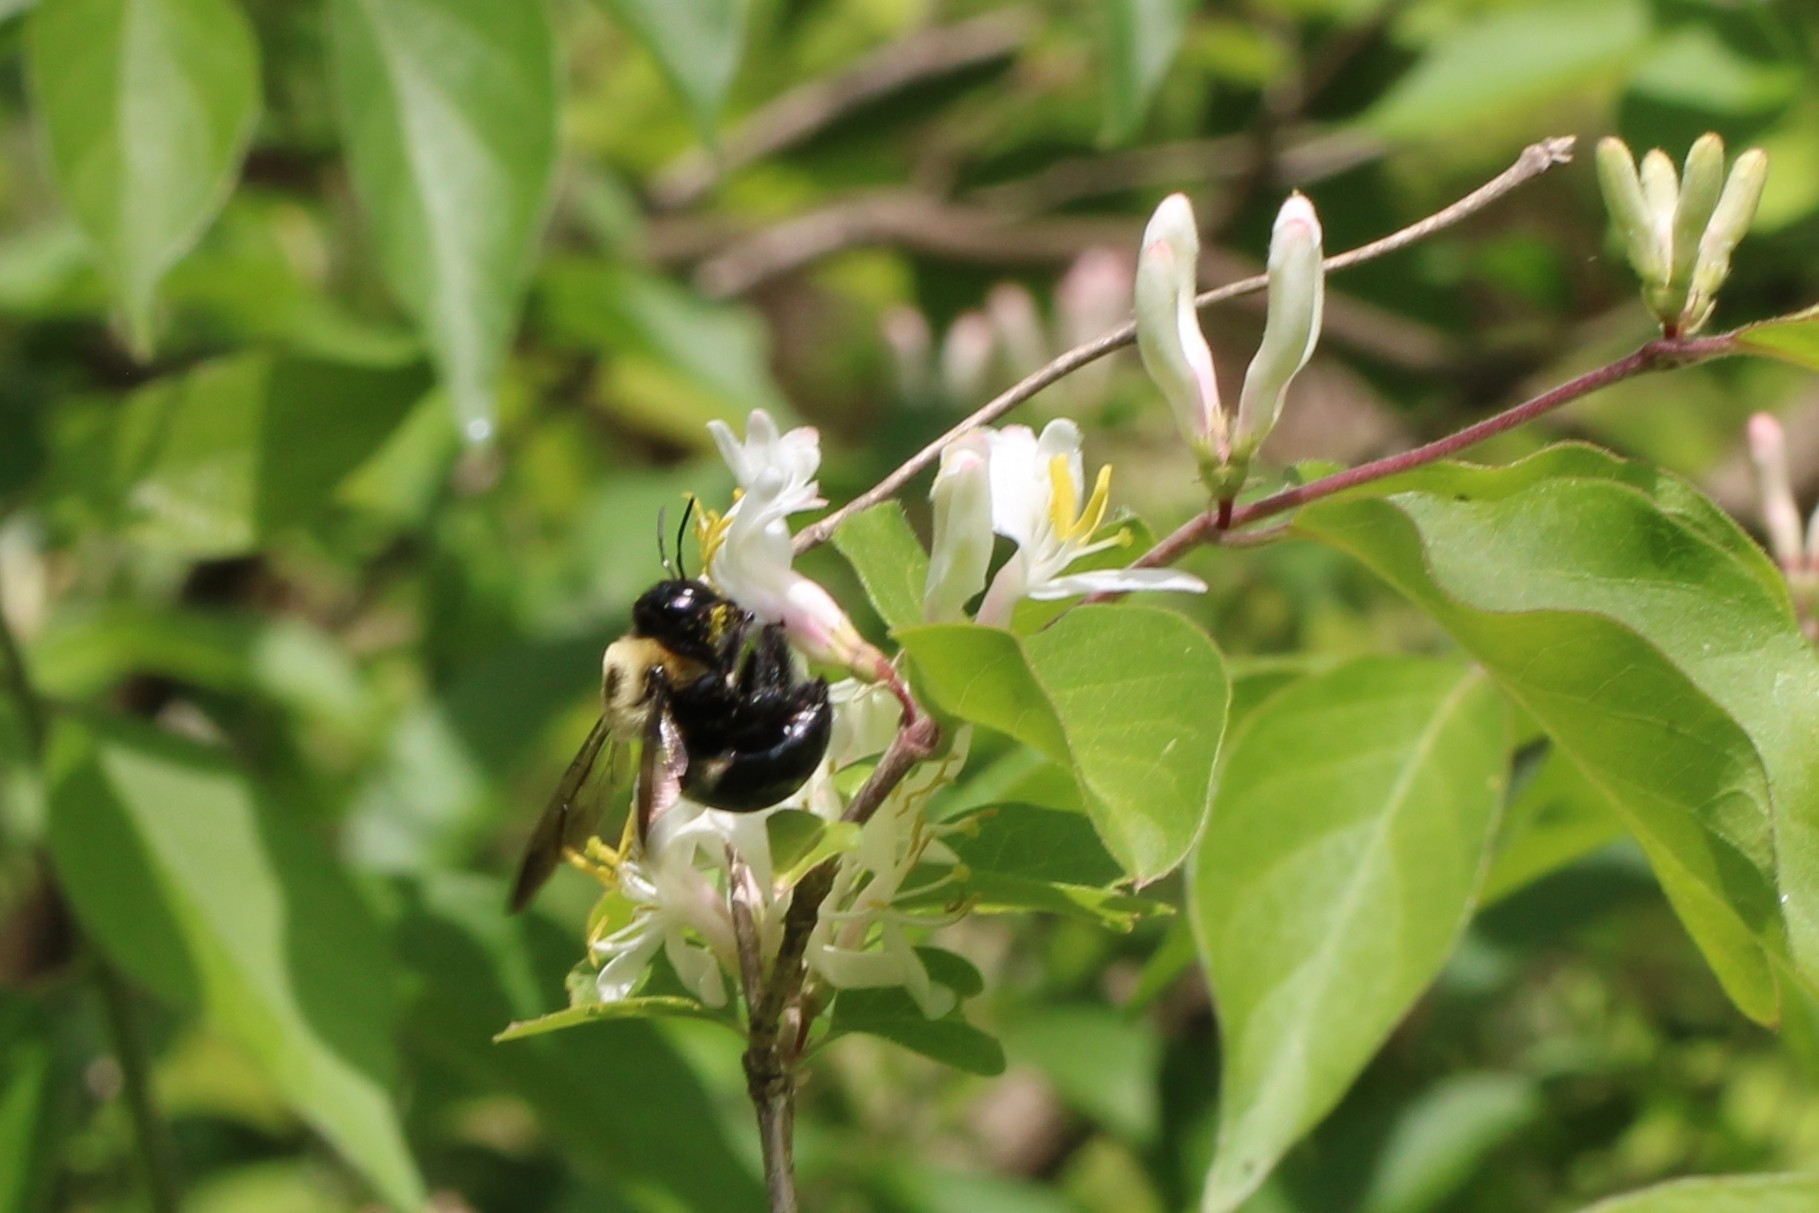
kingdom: Animalia
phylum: Arthropoda
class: Insecta
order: Hymenoptera
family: Apidae
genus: Xylocopa
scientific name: Xylocopa virginica
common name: Carpenter bee
